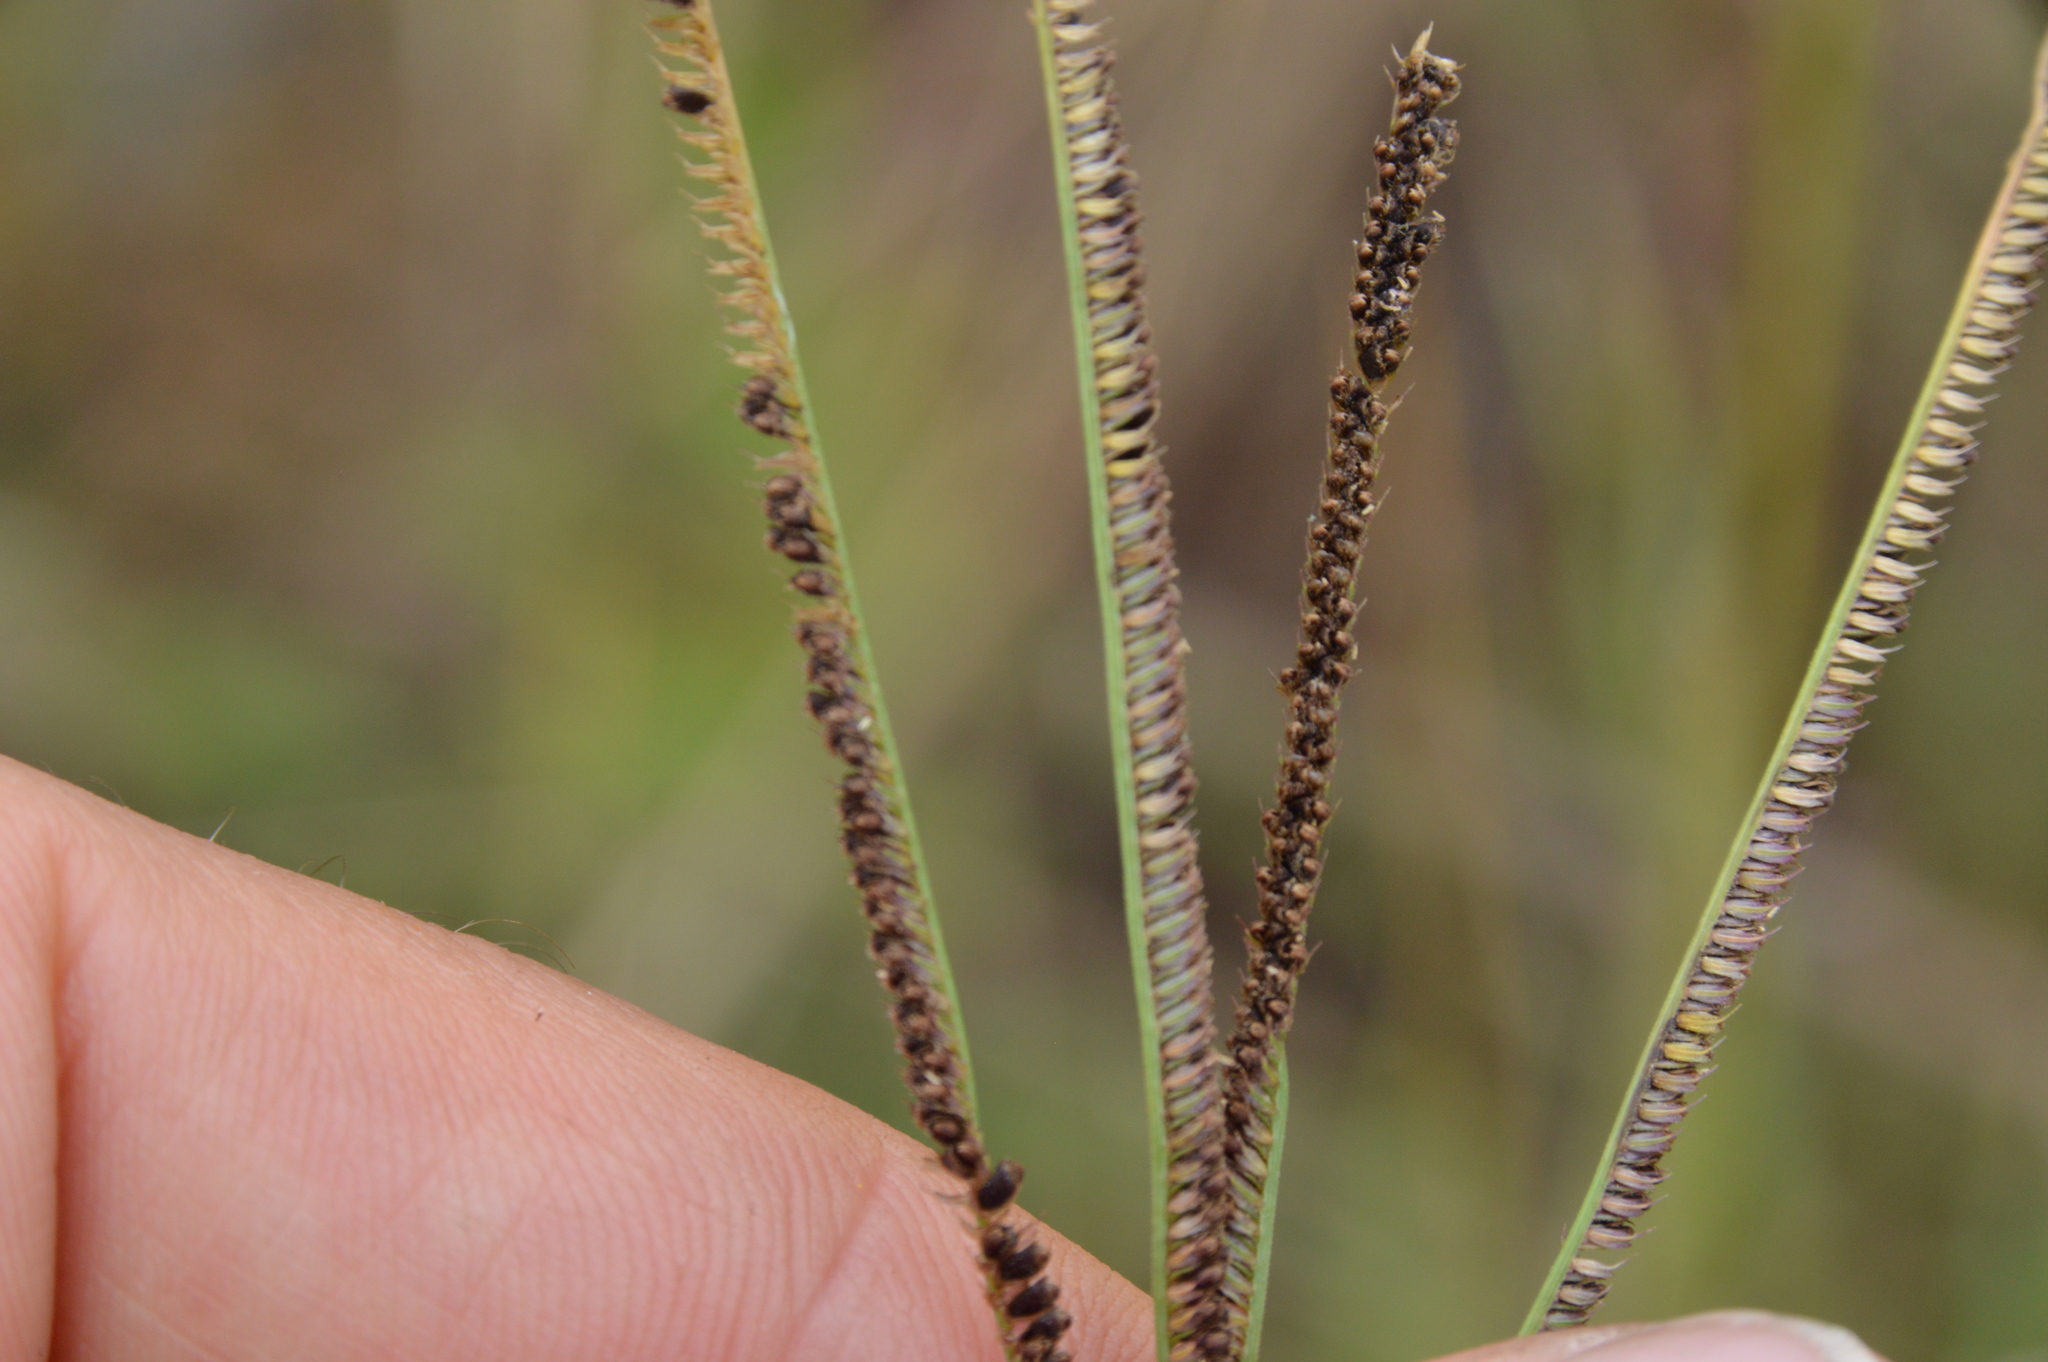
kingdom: Plantae
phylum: Tracheophyta
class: Liliopsida
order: Poales
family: Poaceae
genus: Eustachys
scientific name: Eustachys petraea
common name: Pinewoods fingergrass
